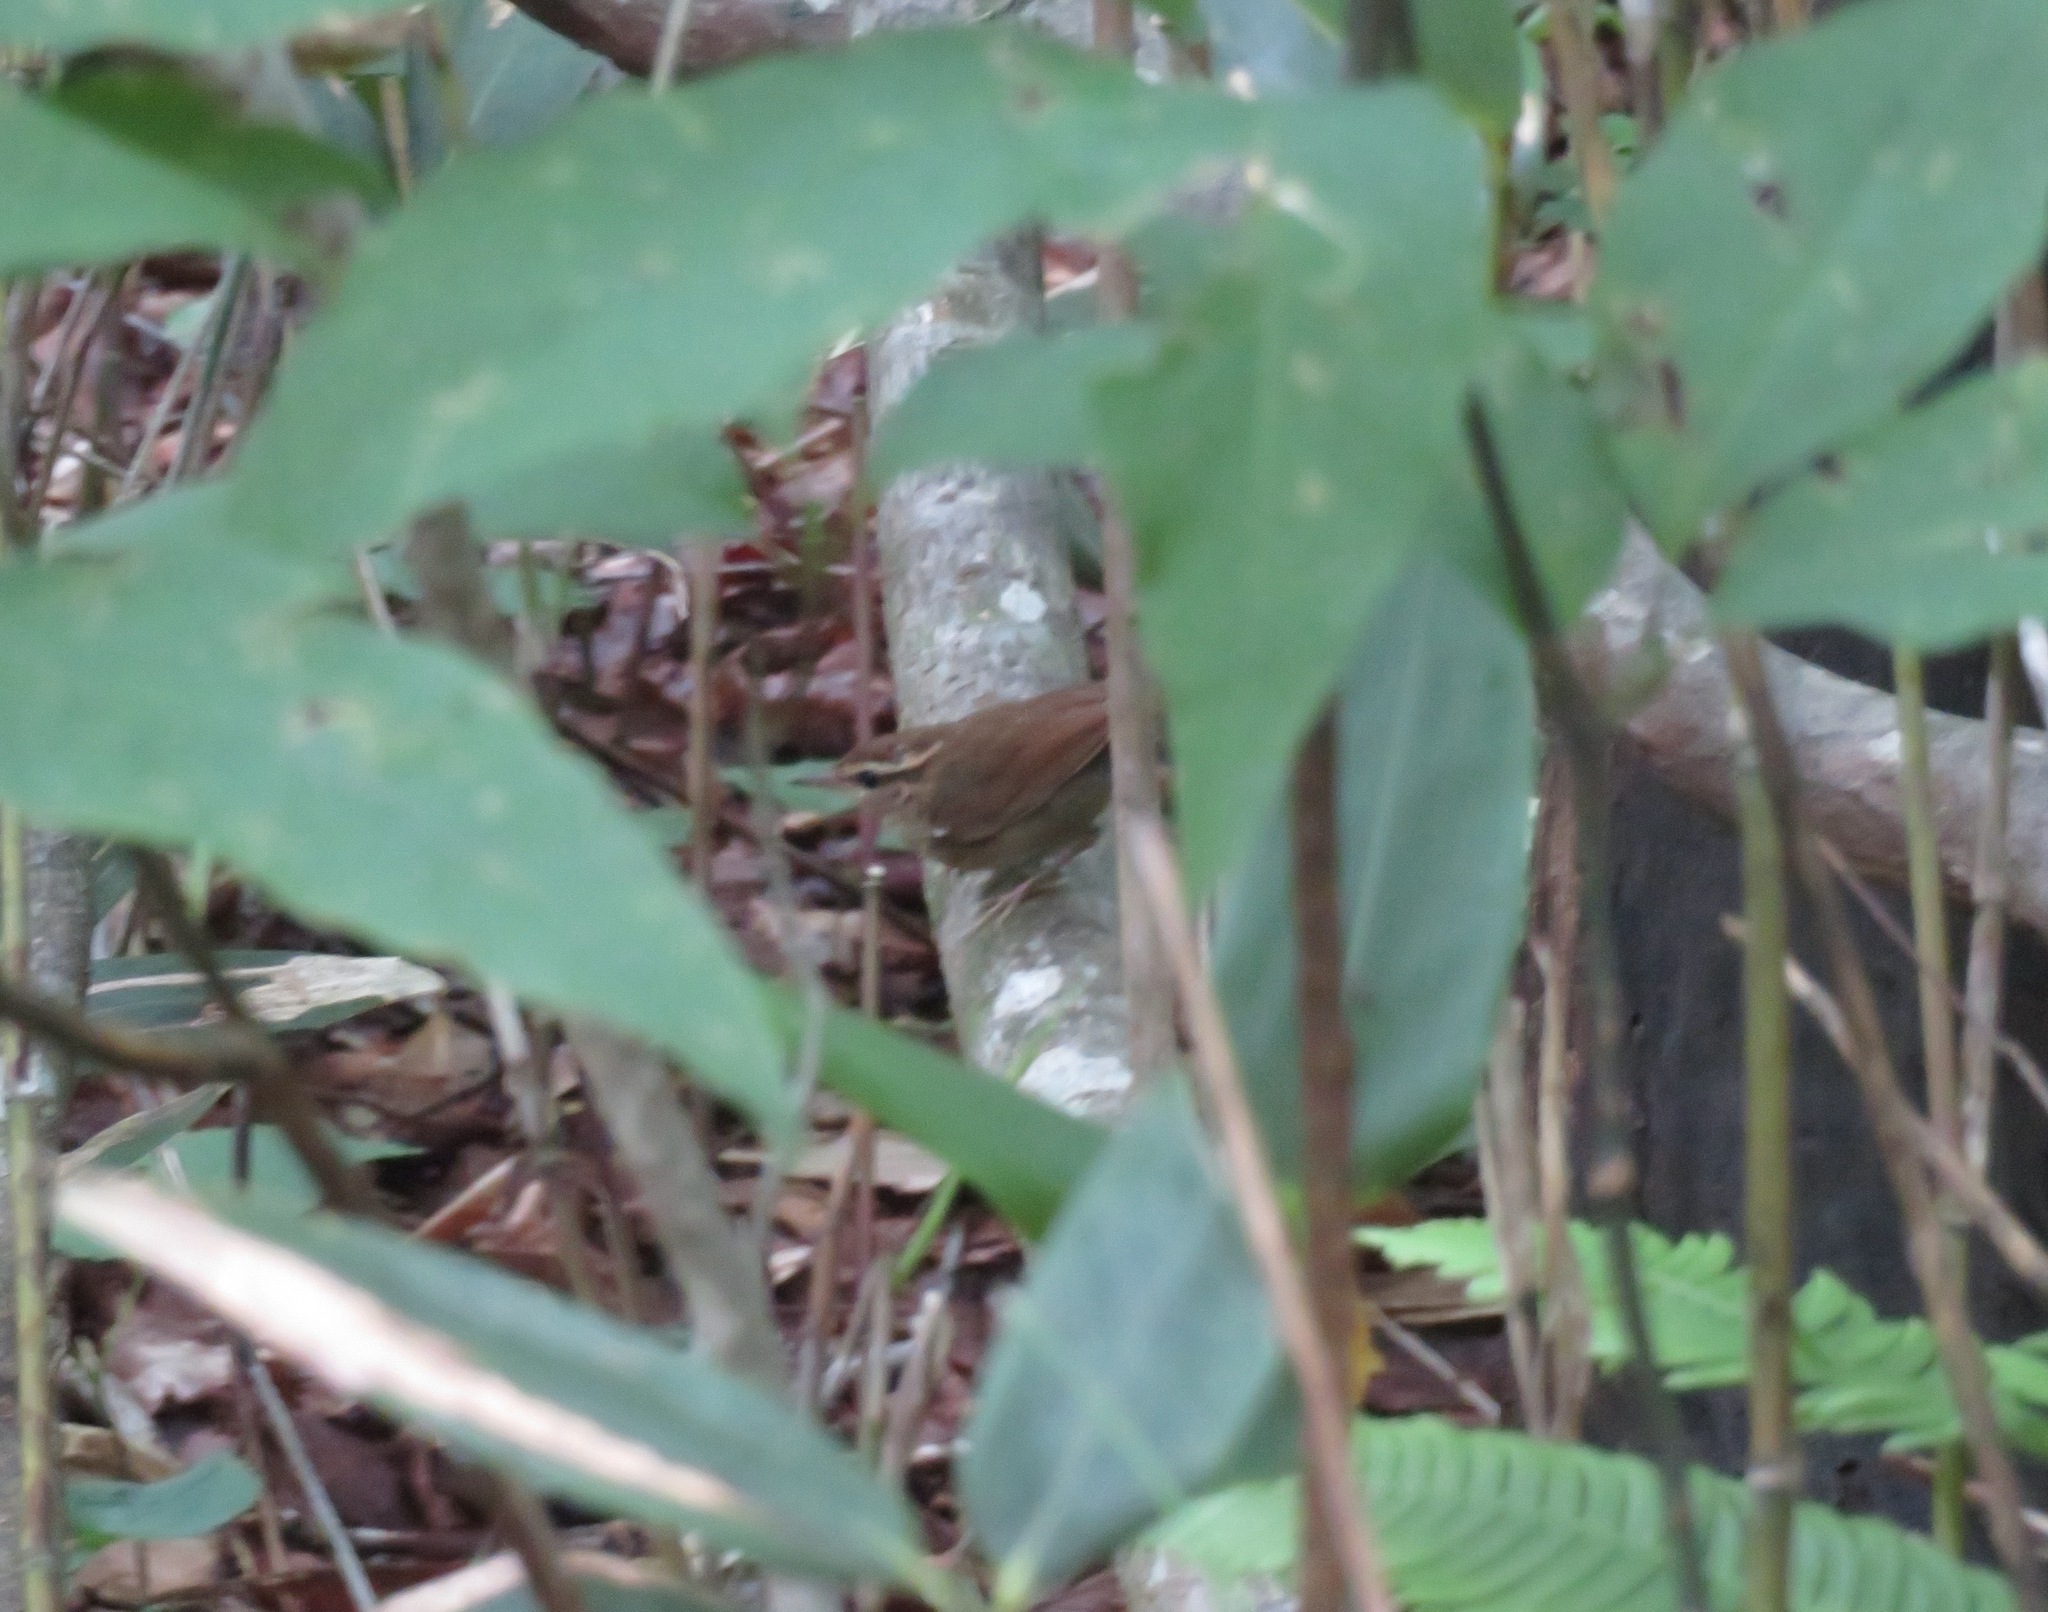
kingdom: Animalia
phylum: Chordata
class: Aves
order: Passeriformes
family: Cettiidae
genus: Urosphena
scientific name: Urosphena squameiceps
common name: Asian stubtail
